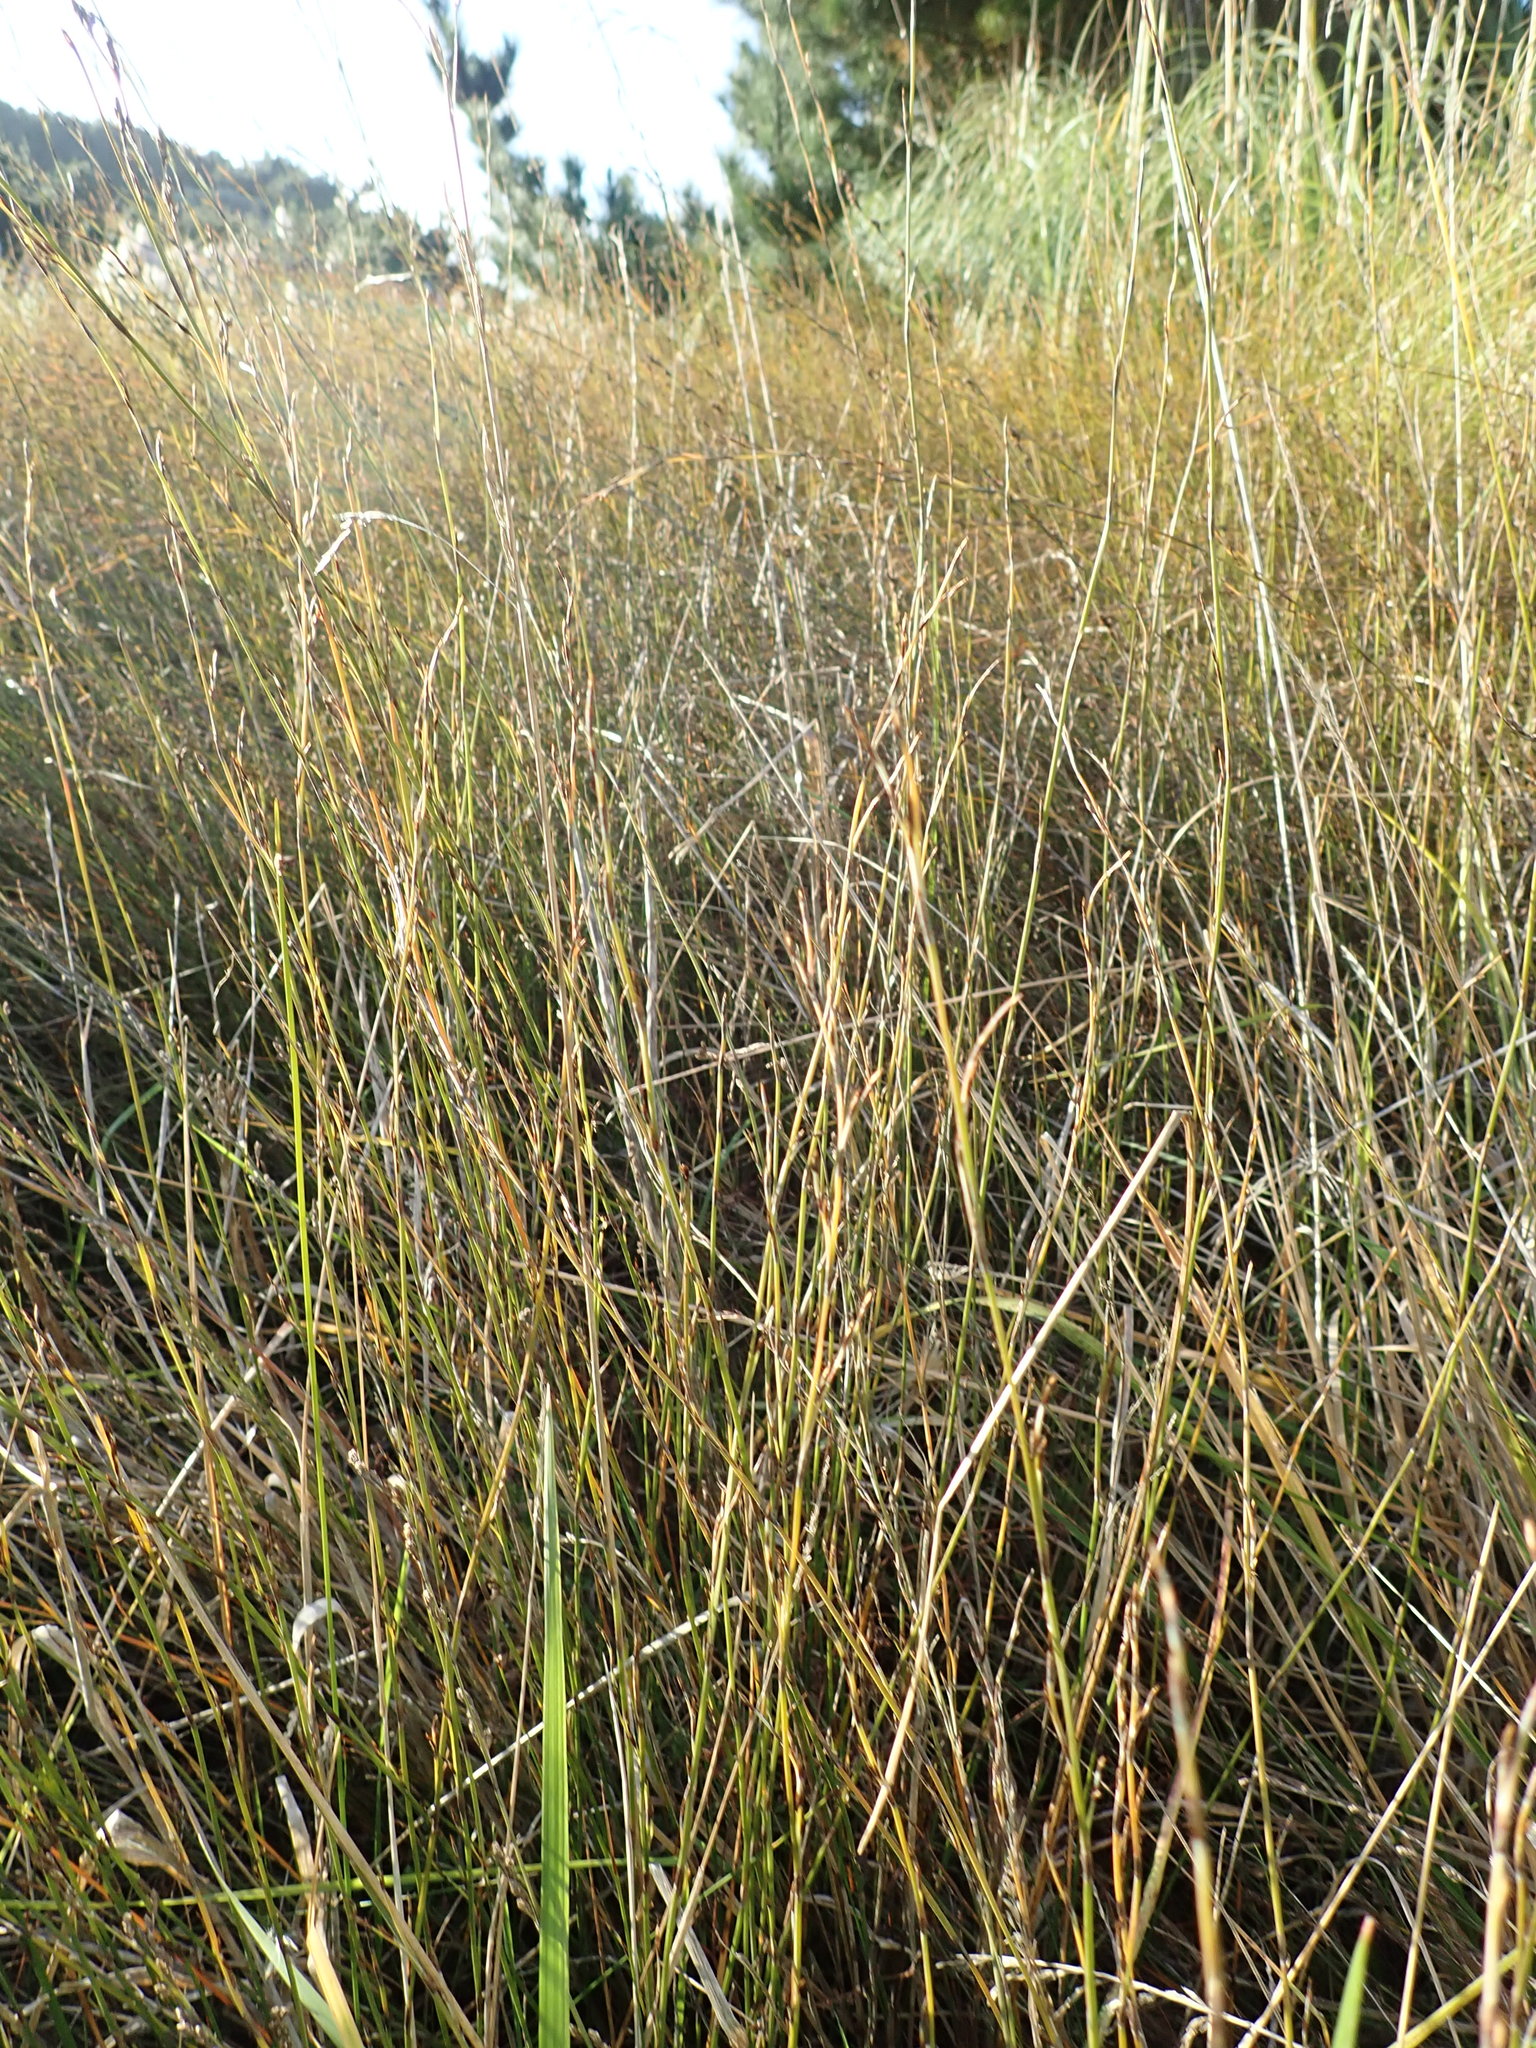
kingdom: Plantae
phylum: Tracheophyta
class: Liliopsida
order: Poales
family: Restionaceae
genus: Apodasmia
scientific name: Apodasmia similis
